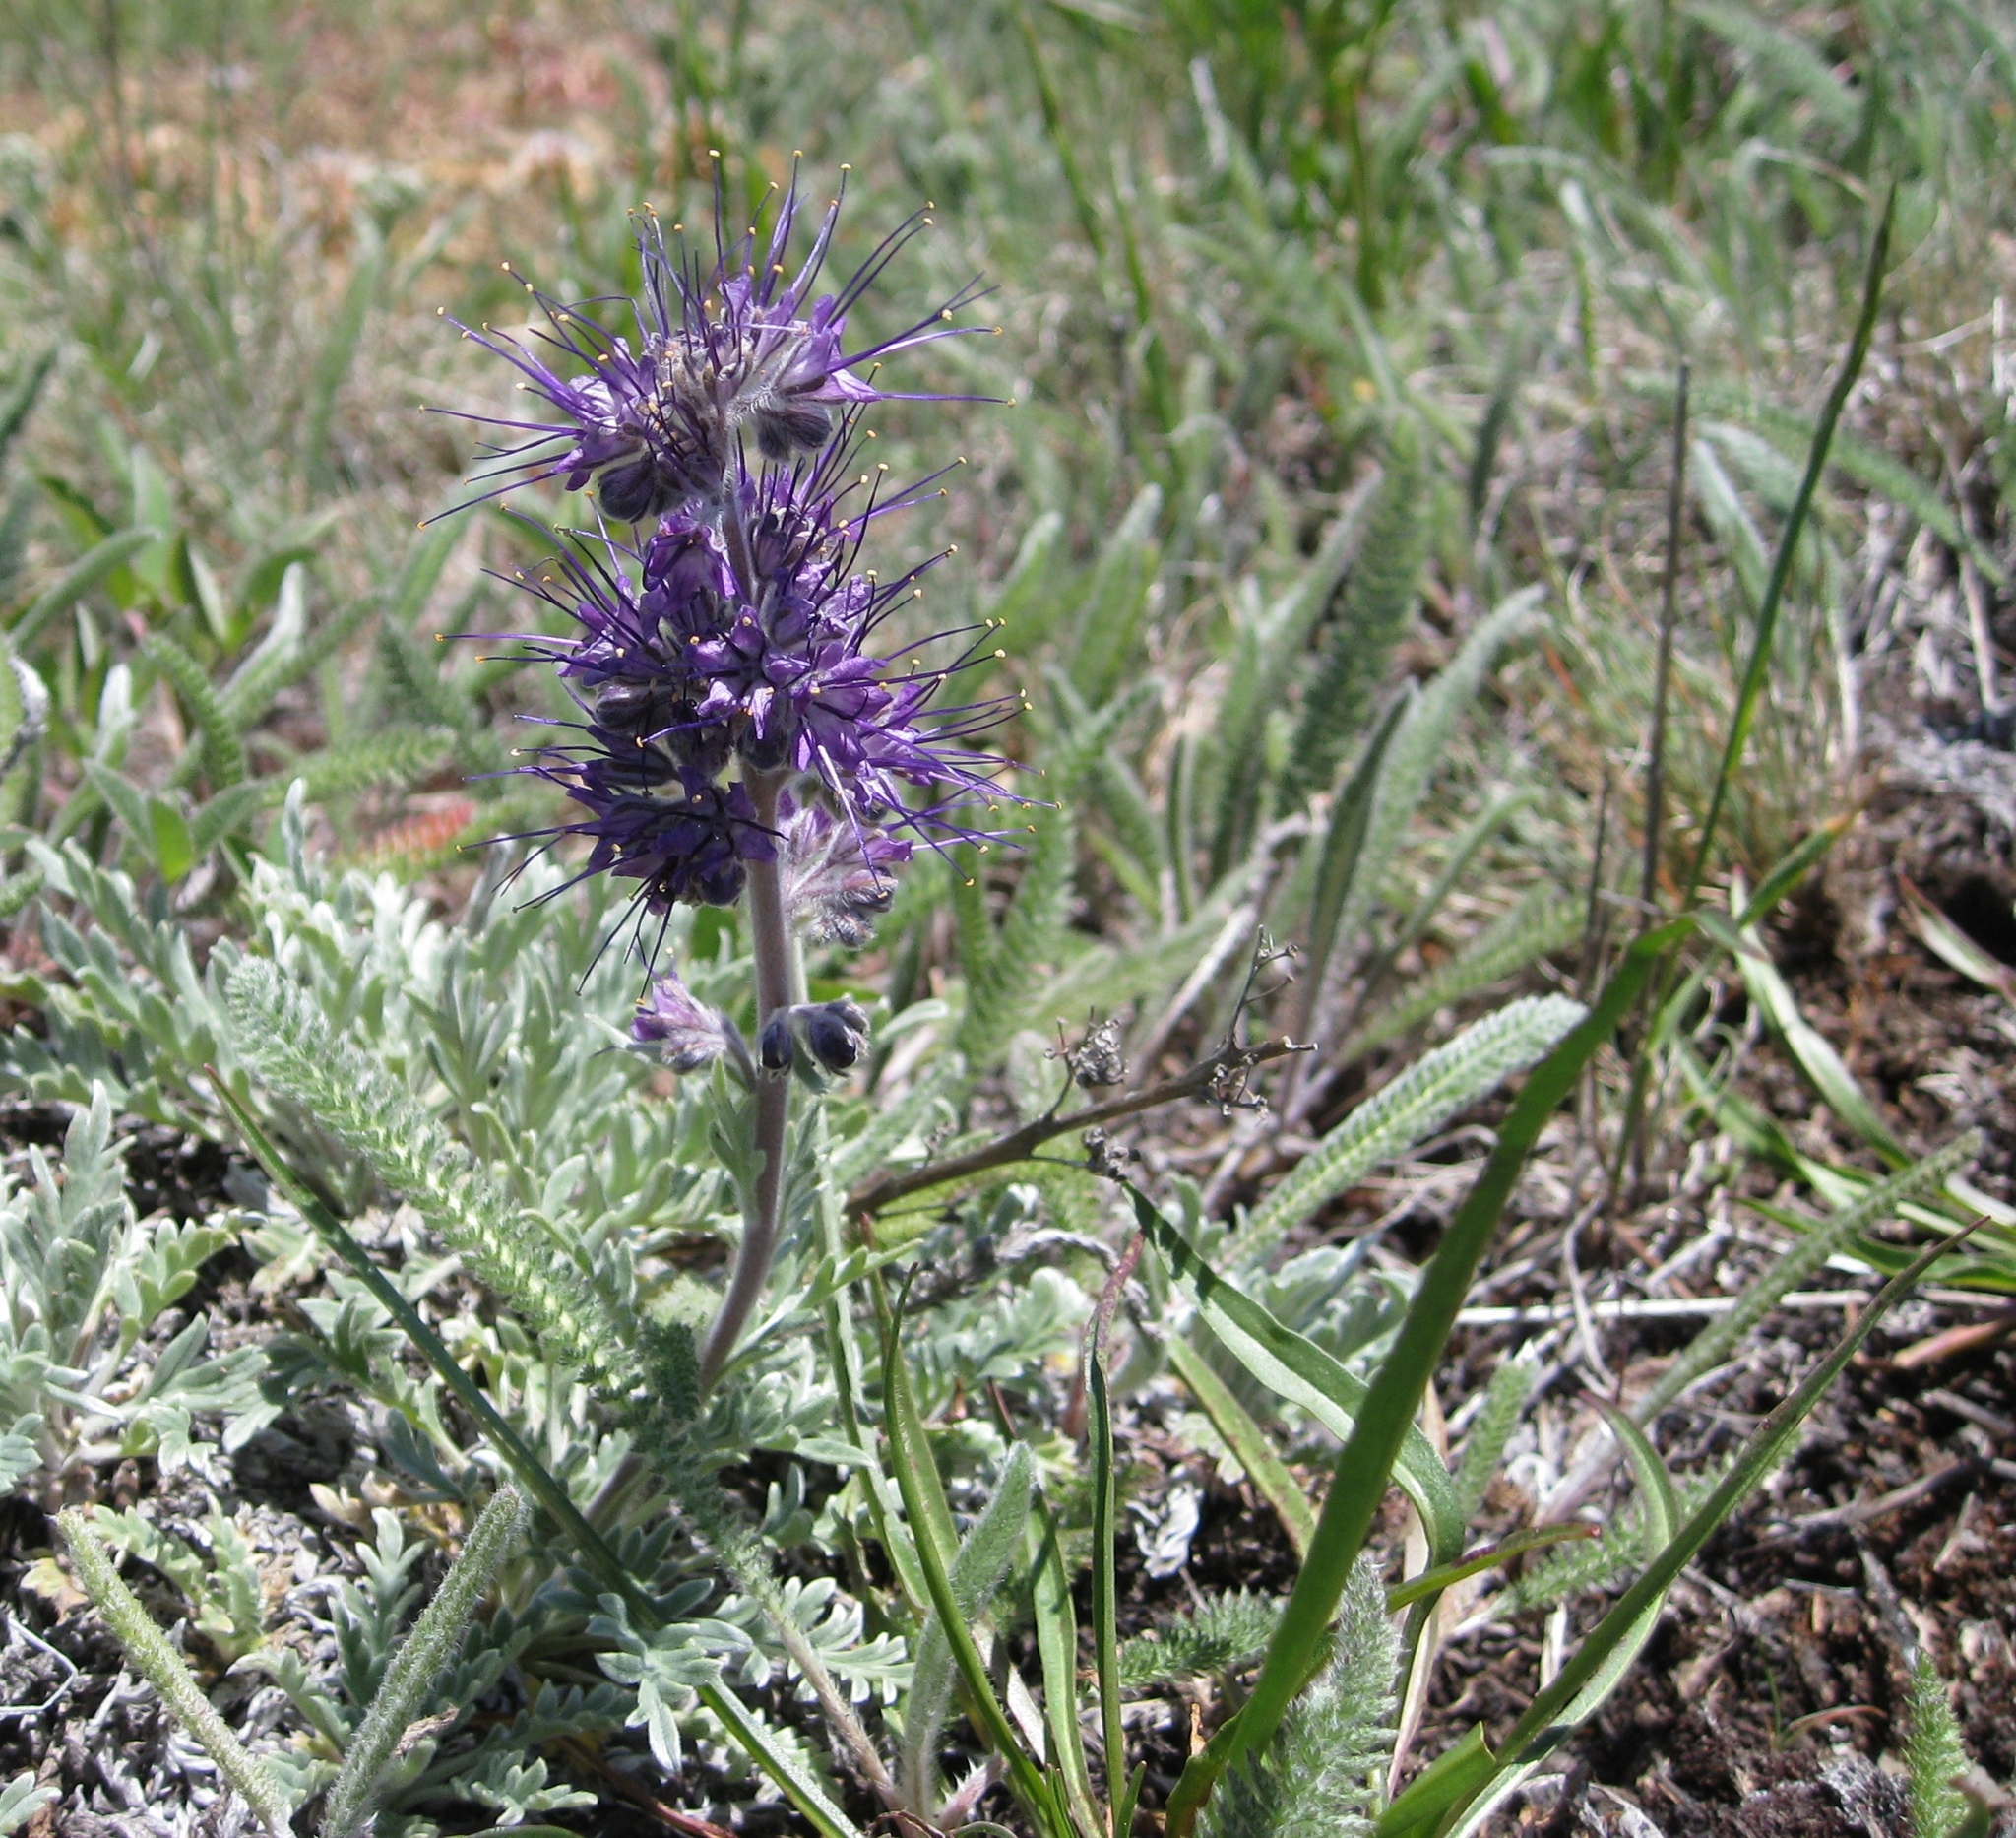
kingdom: Plantae
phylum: Tracheophyta
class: Magnoliopsida
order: Boraginales
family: Hydrophyllaceae
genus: Phacelia
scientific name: Phacelia sericea
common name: Silky phacelia
